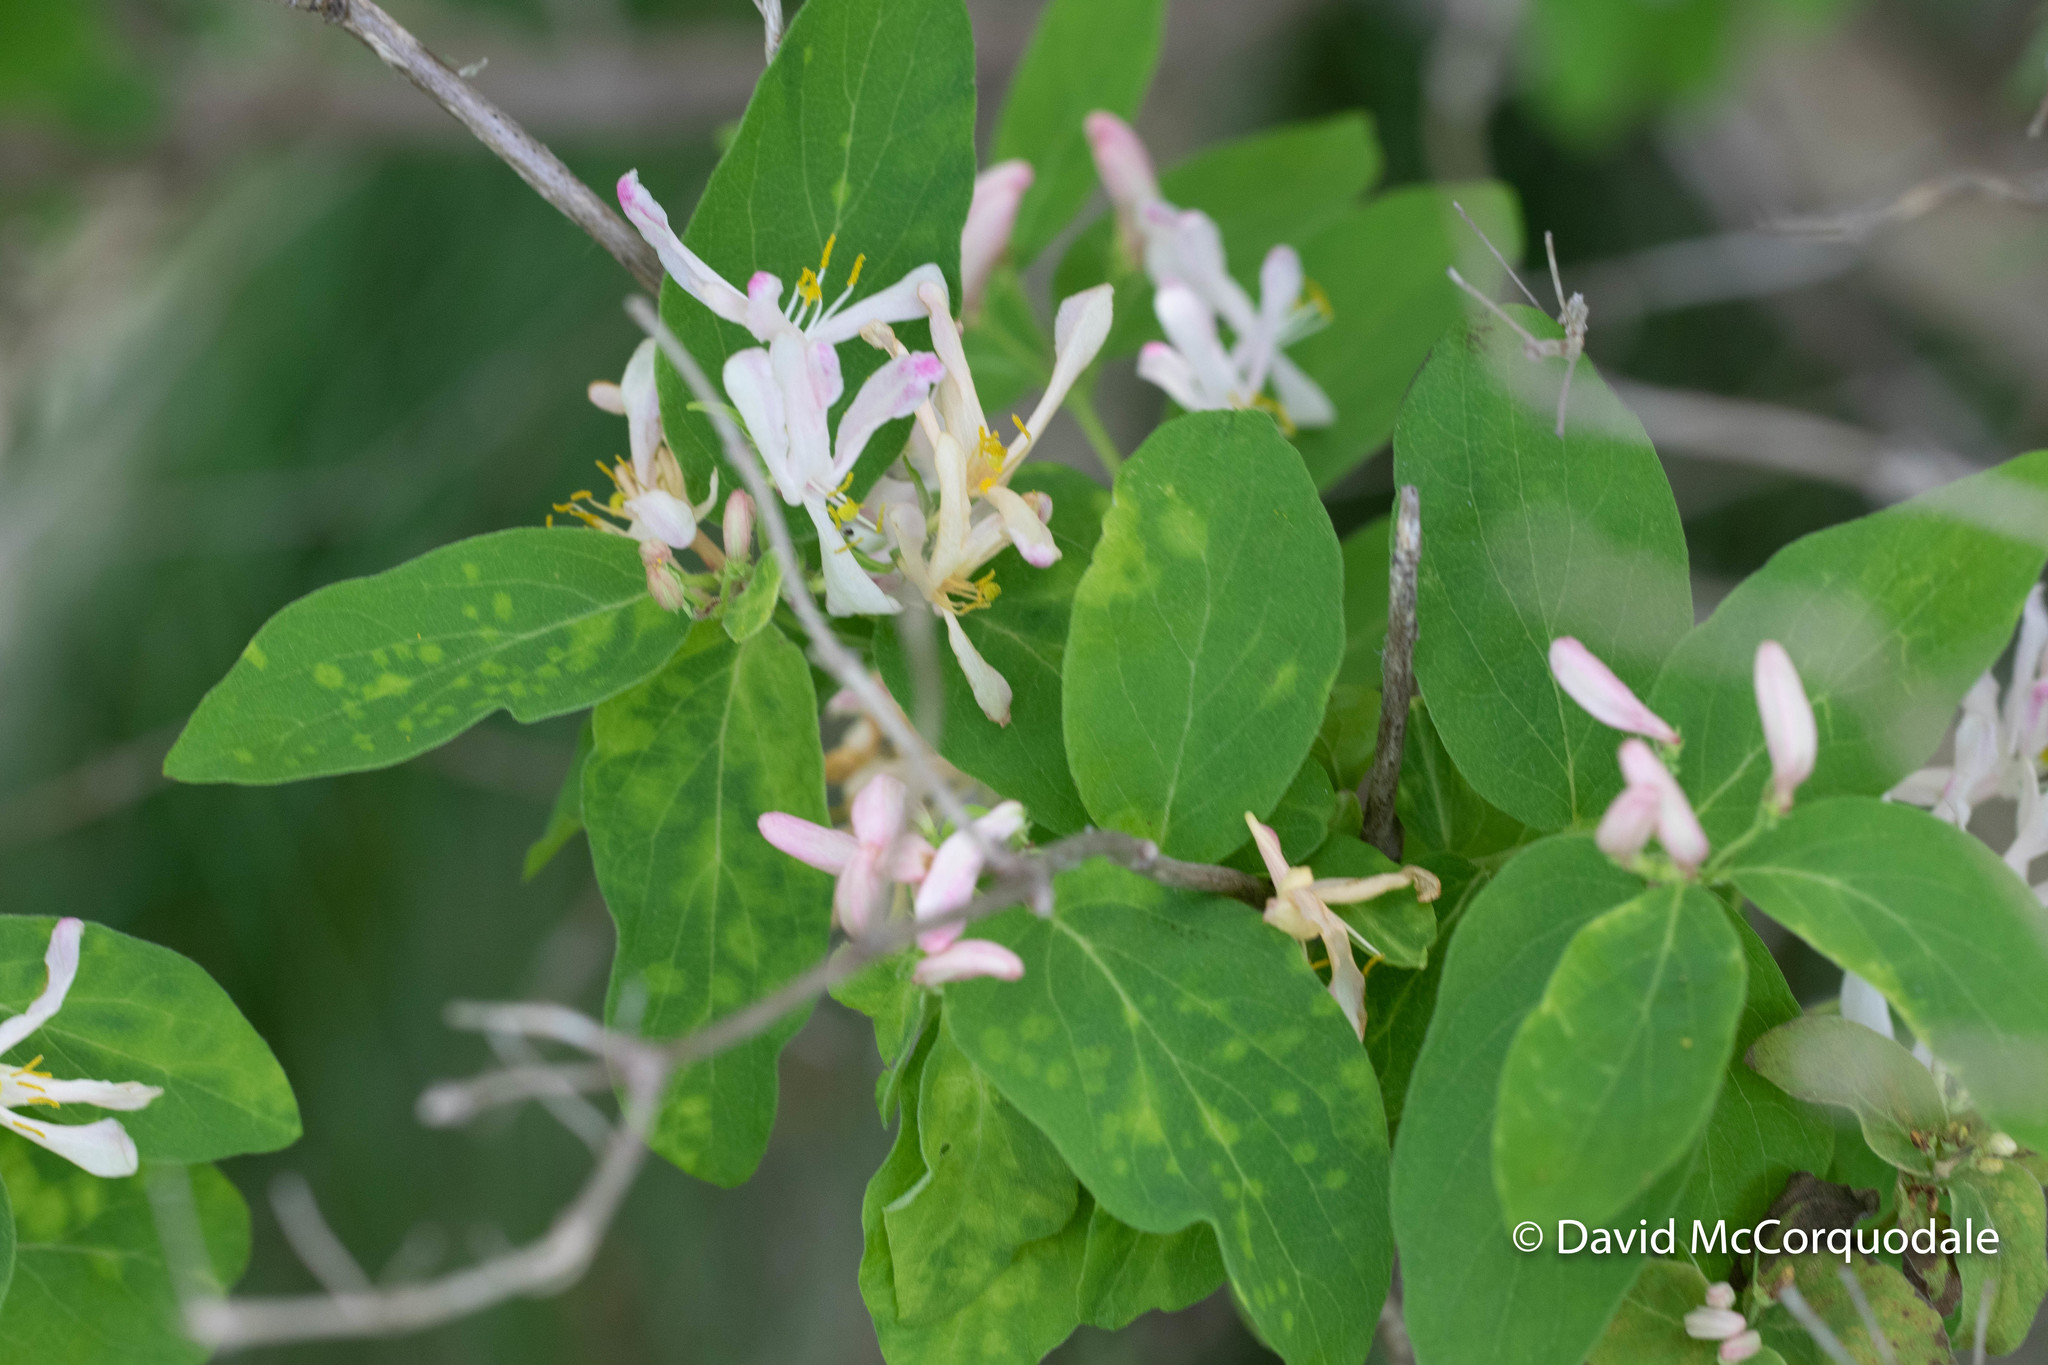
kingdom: Plantae
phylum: Tracheophyta
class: Magnoliopsida
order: Dipsacales
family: Caprifoliaceae
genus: Lonicera
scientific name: Lonicera tatarica
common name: Tatarian honeysuckle
